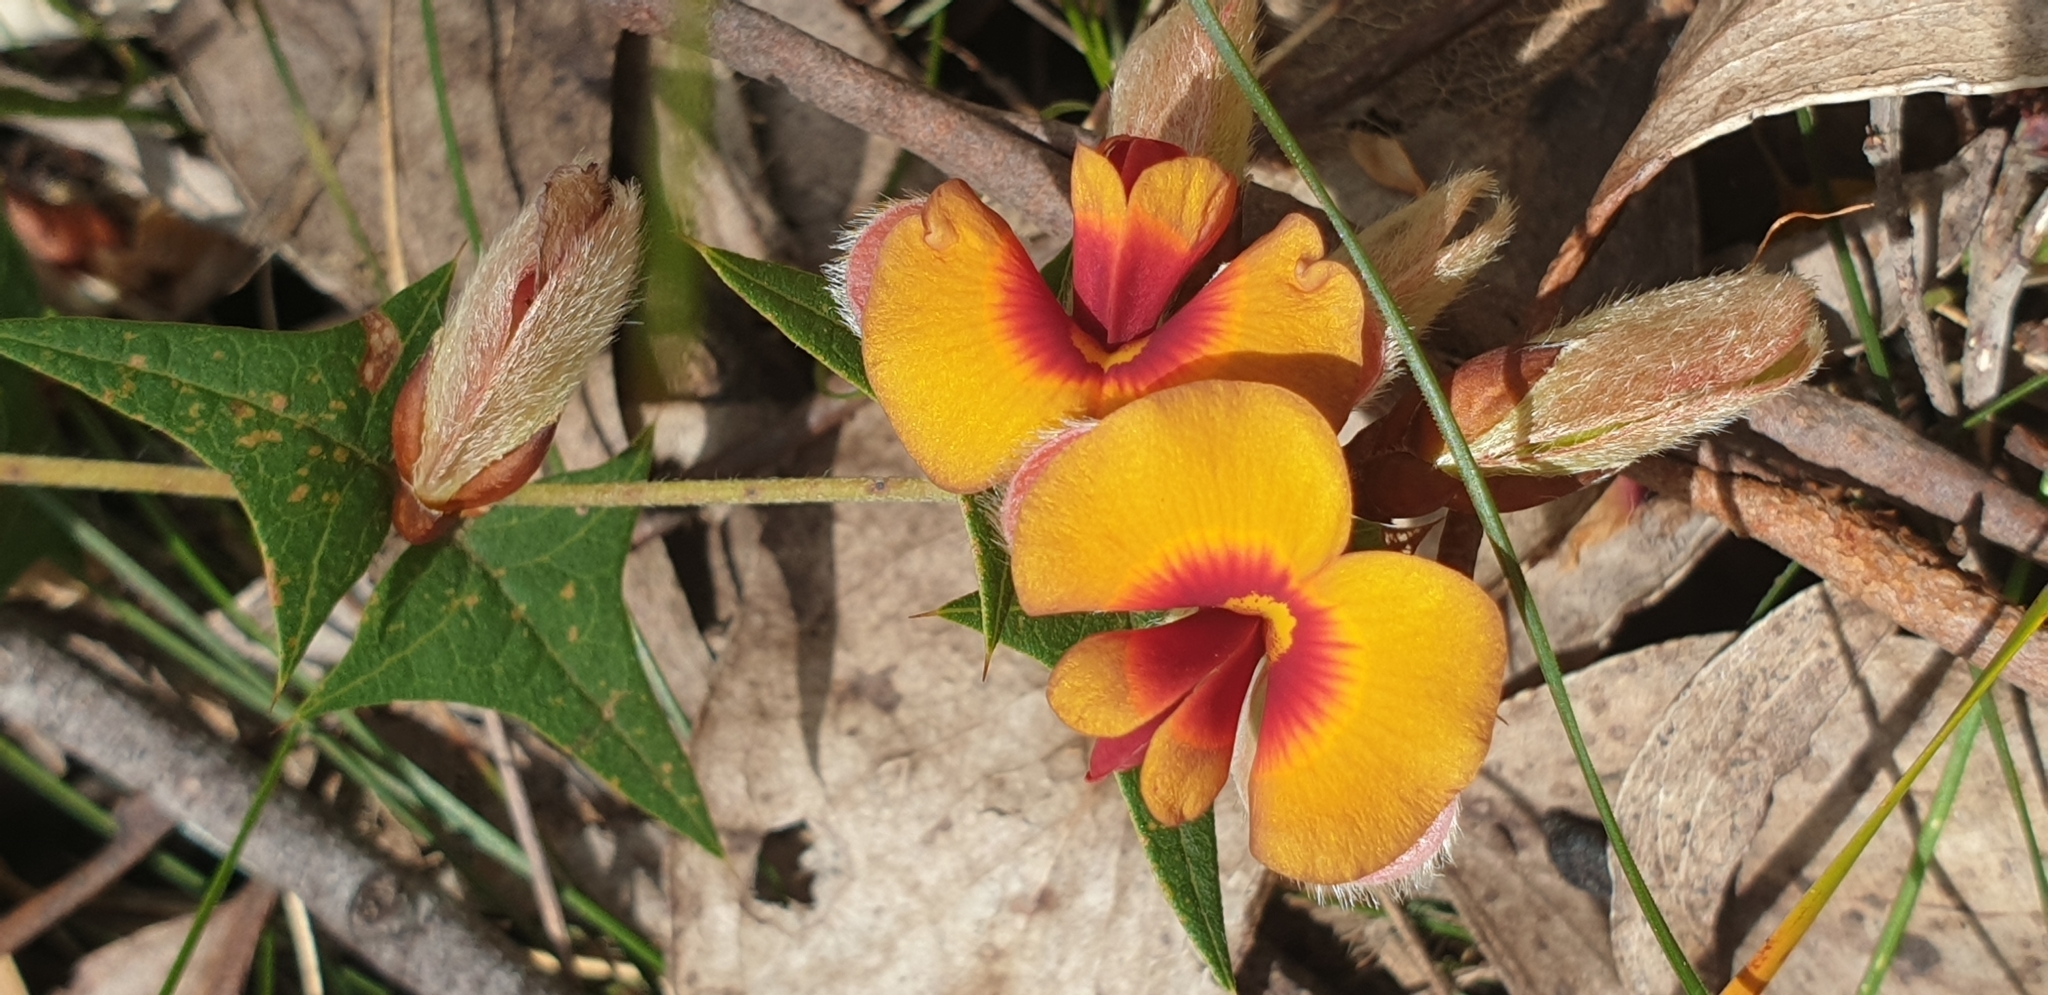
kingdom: Plantae
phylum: Tracheophyta
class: Magnoliopsida
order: Fabales
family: Fabaceae
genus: Platylobium
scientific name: Platylobium obtusangulum
